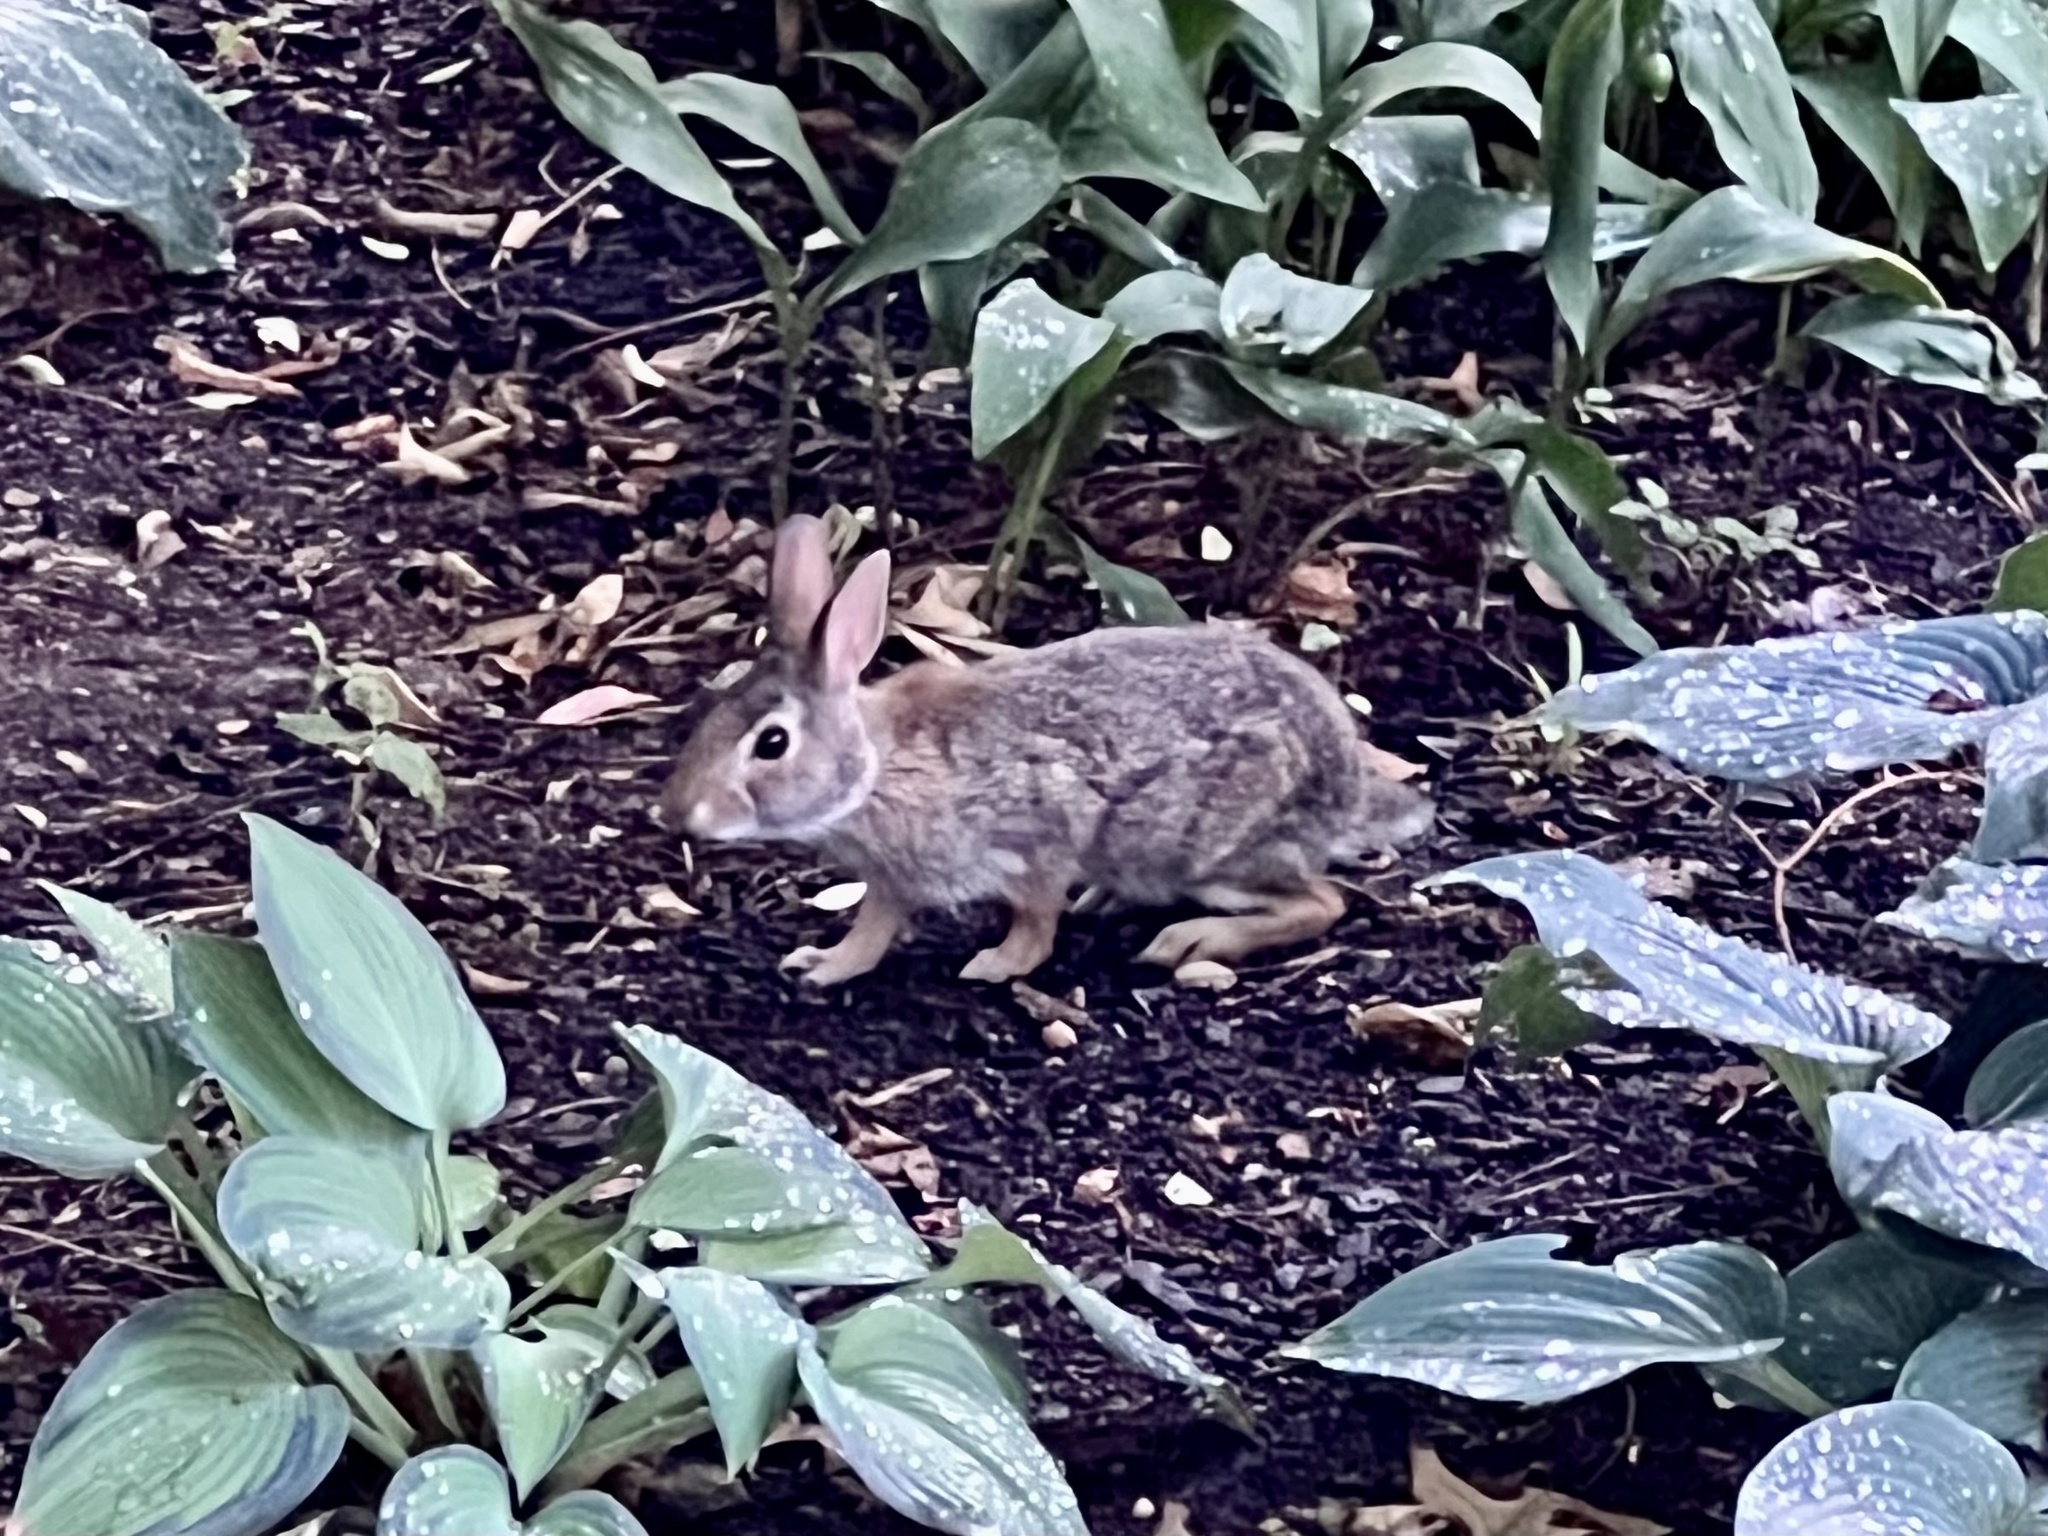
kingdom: Animalia
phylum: Chordata
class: Mammalia
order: Lagomorpha
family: Leporidae
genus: Sylvilagus
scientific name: Sylvilagus floridanus
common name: Eastern cottontail
